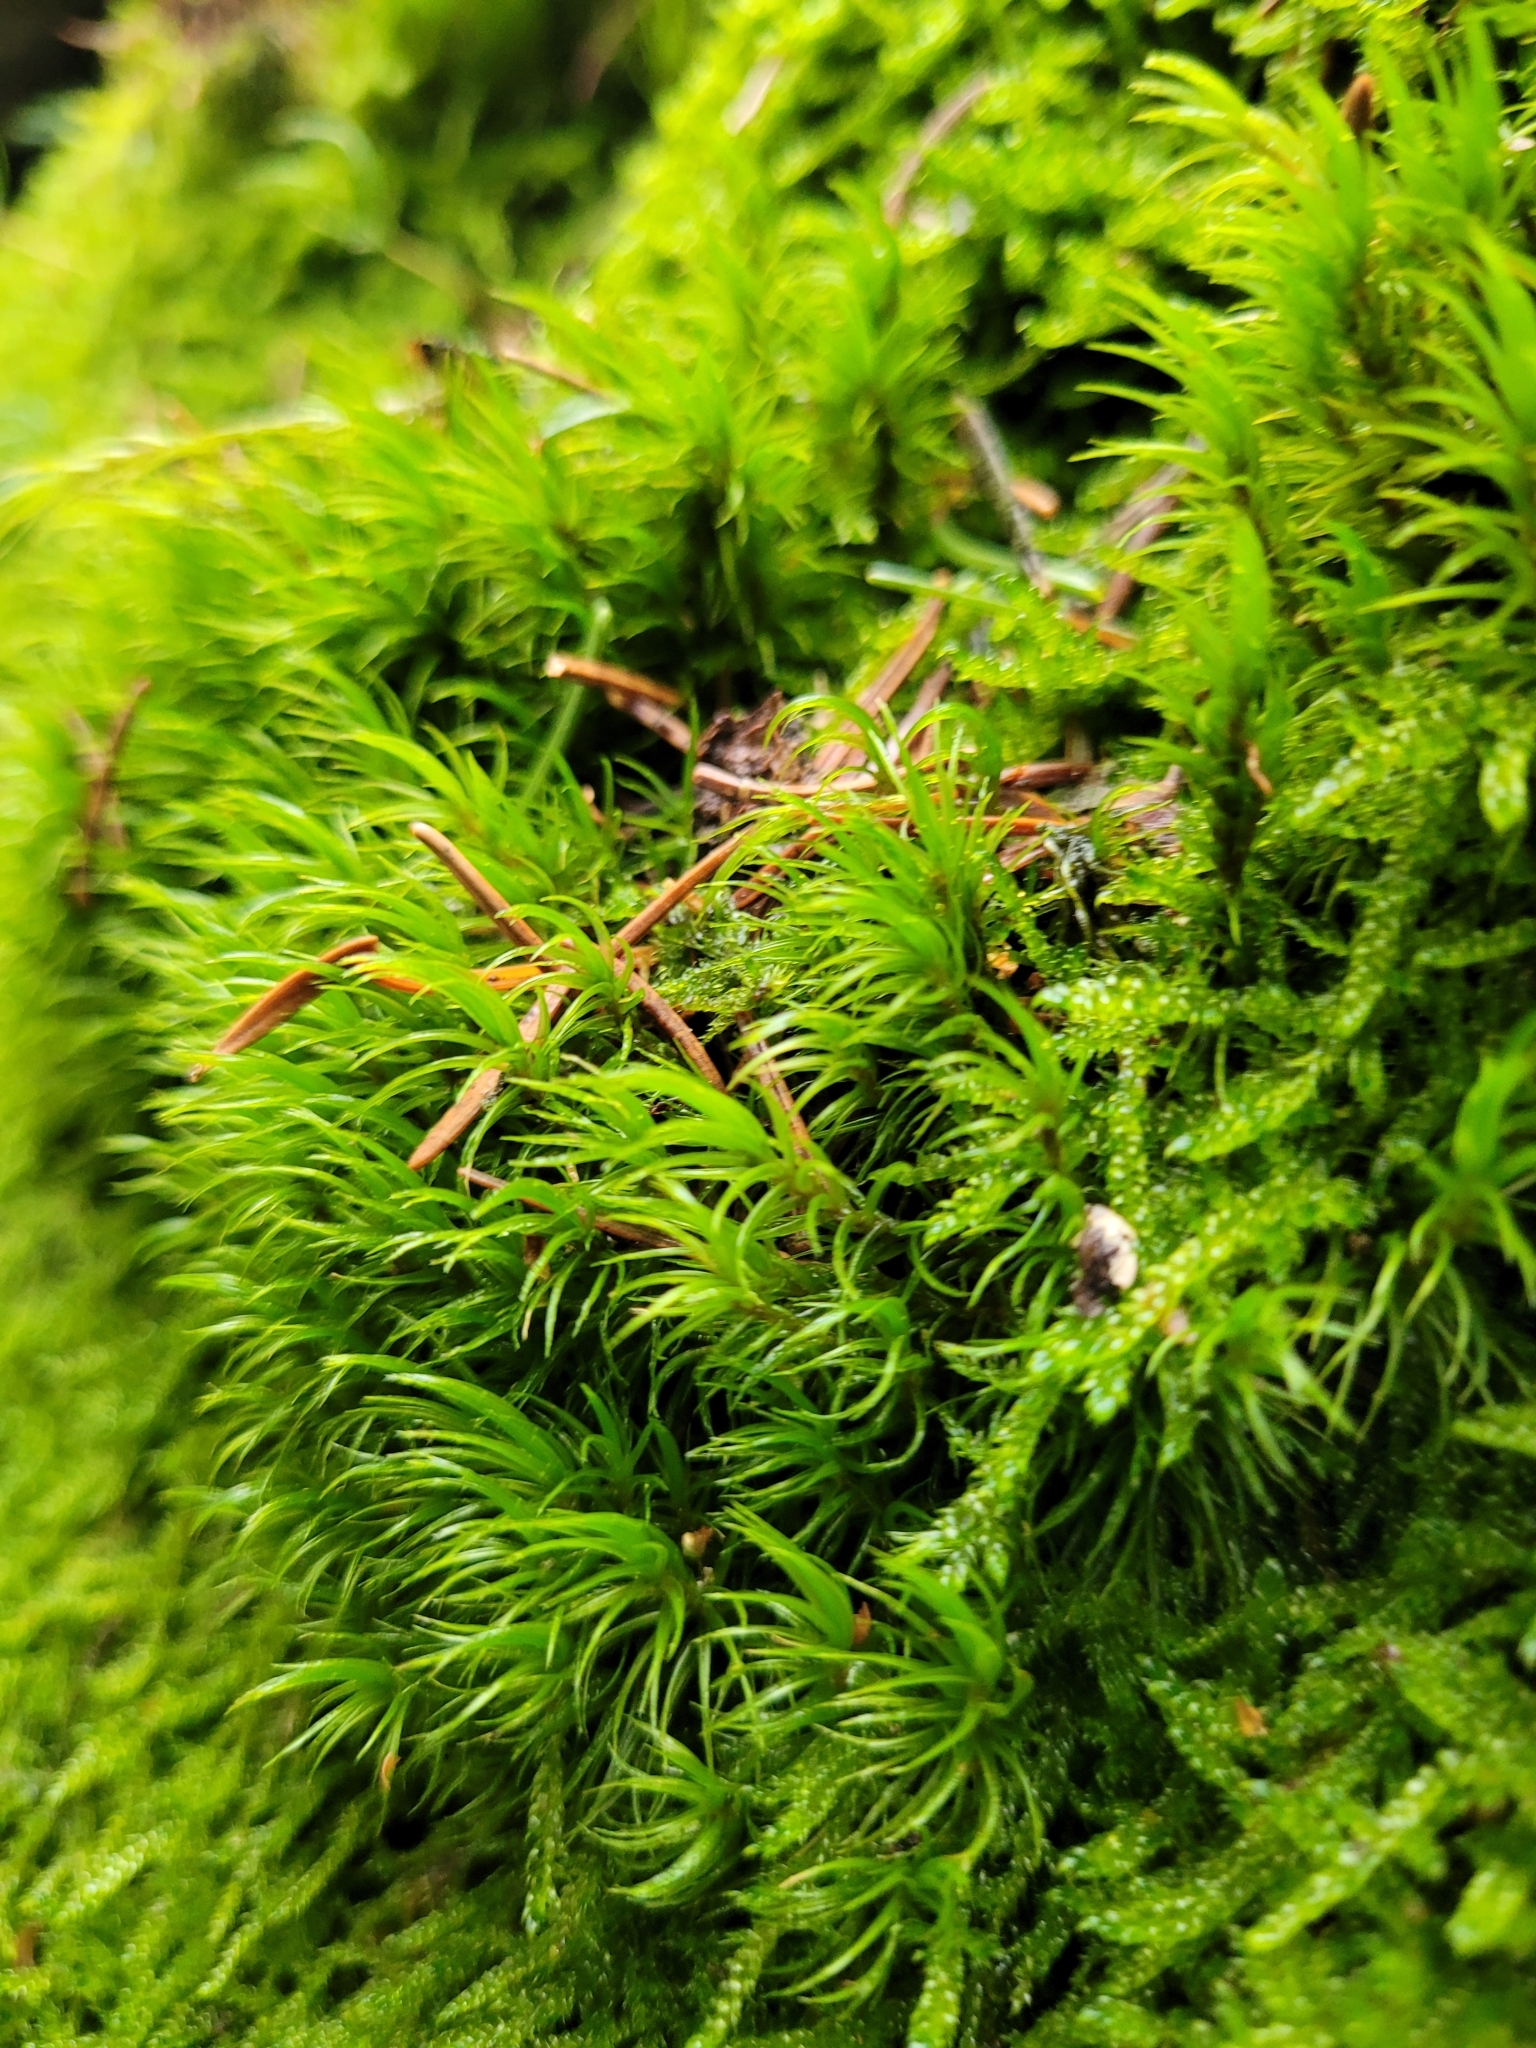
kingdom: Plantae
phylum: Bryophyta
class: Bryopsida
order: Dicranales
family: Dicranaceae
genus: Dicranum
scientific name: Dicranum scoparium
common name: Broom fork-moss
